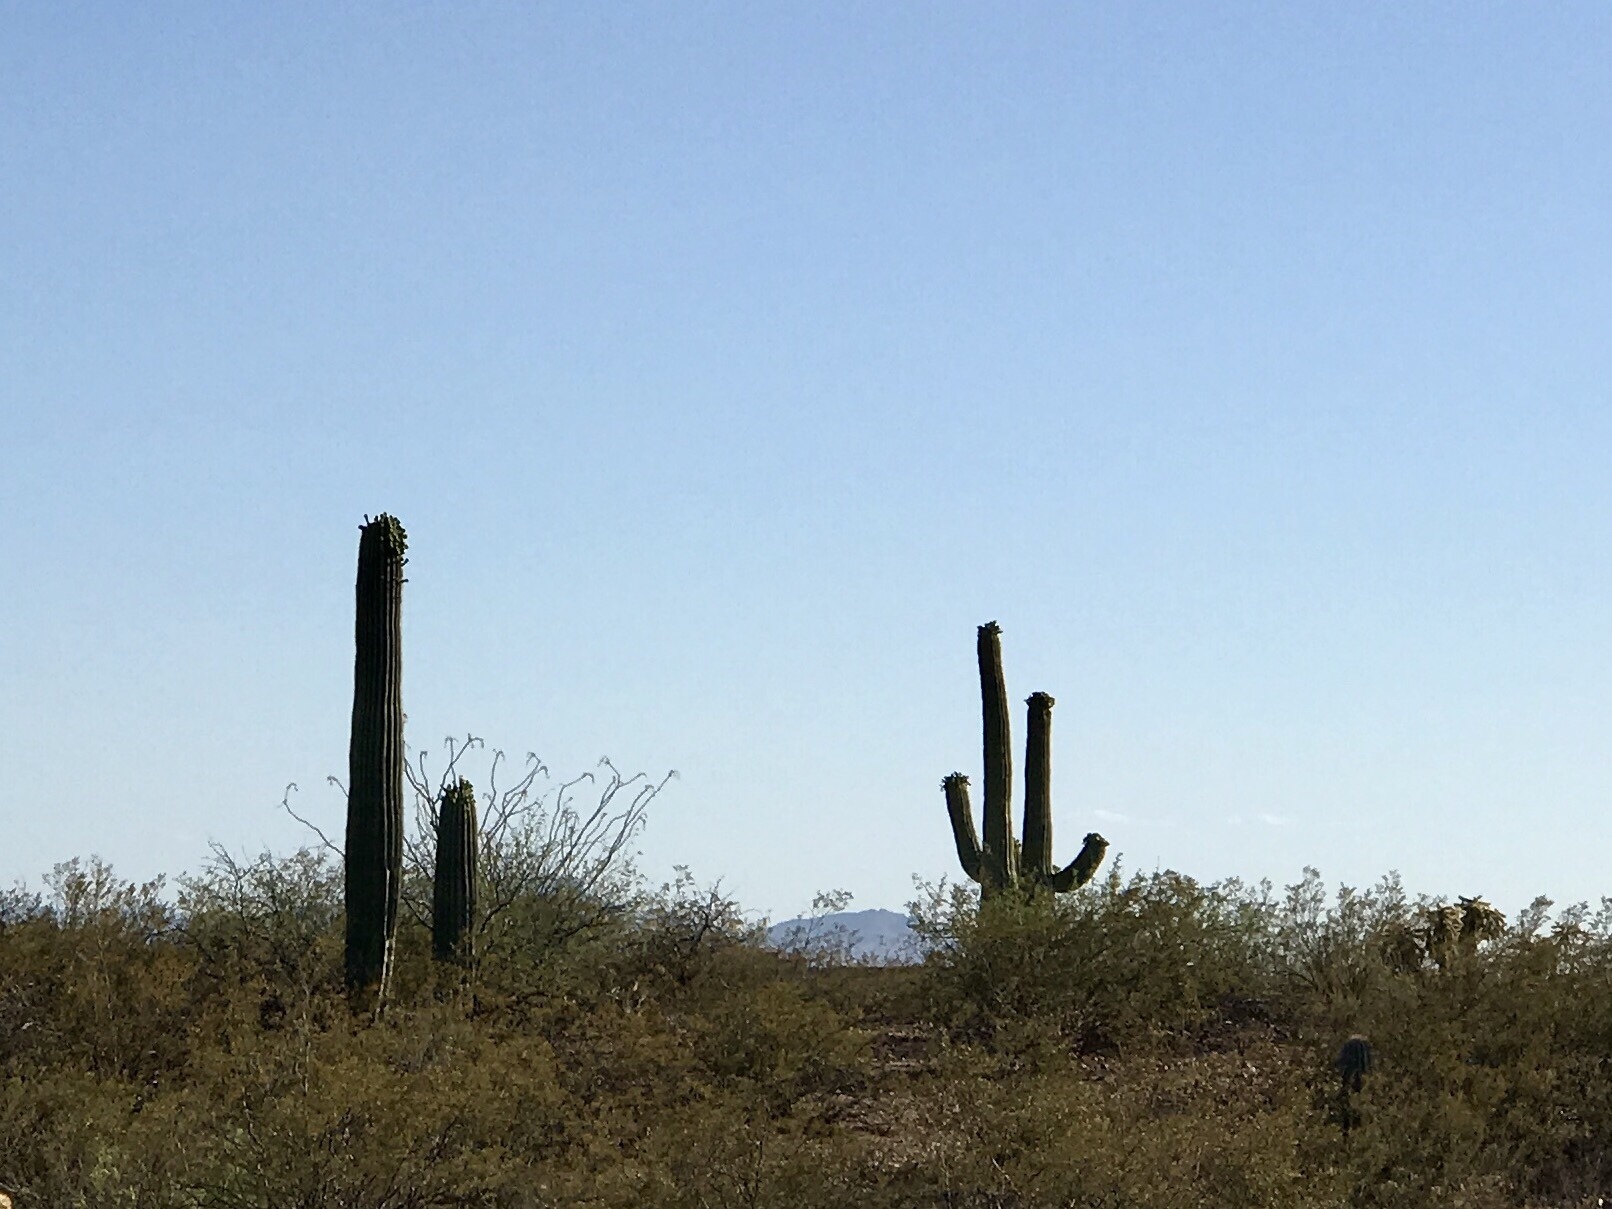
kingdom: Plantae
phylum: Tracheophyta
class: Magnoliopsida
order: Caryophyllales
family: Cactaceae
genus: Carnegiea
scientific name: Carnegiea gigantea
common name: Saguaro
